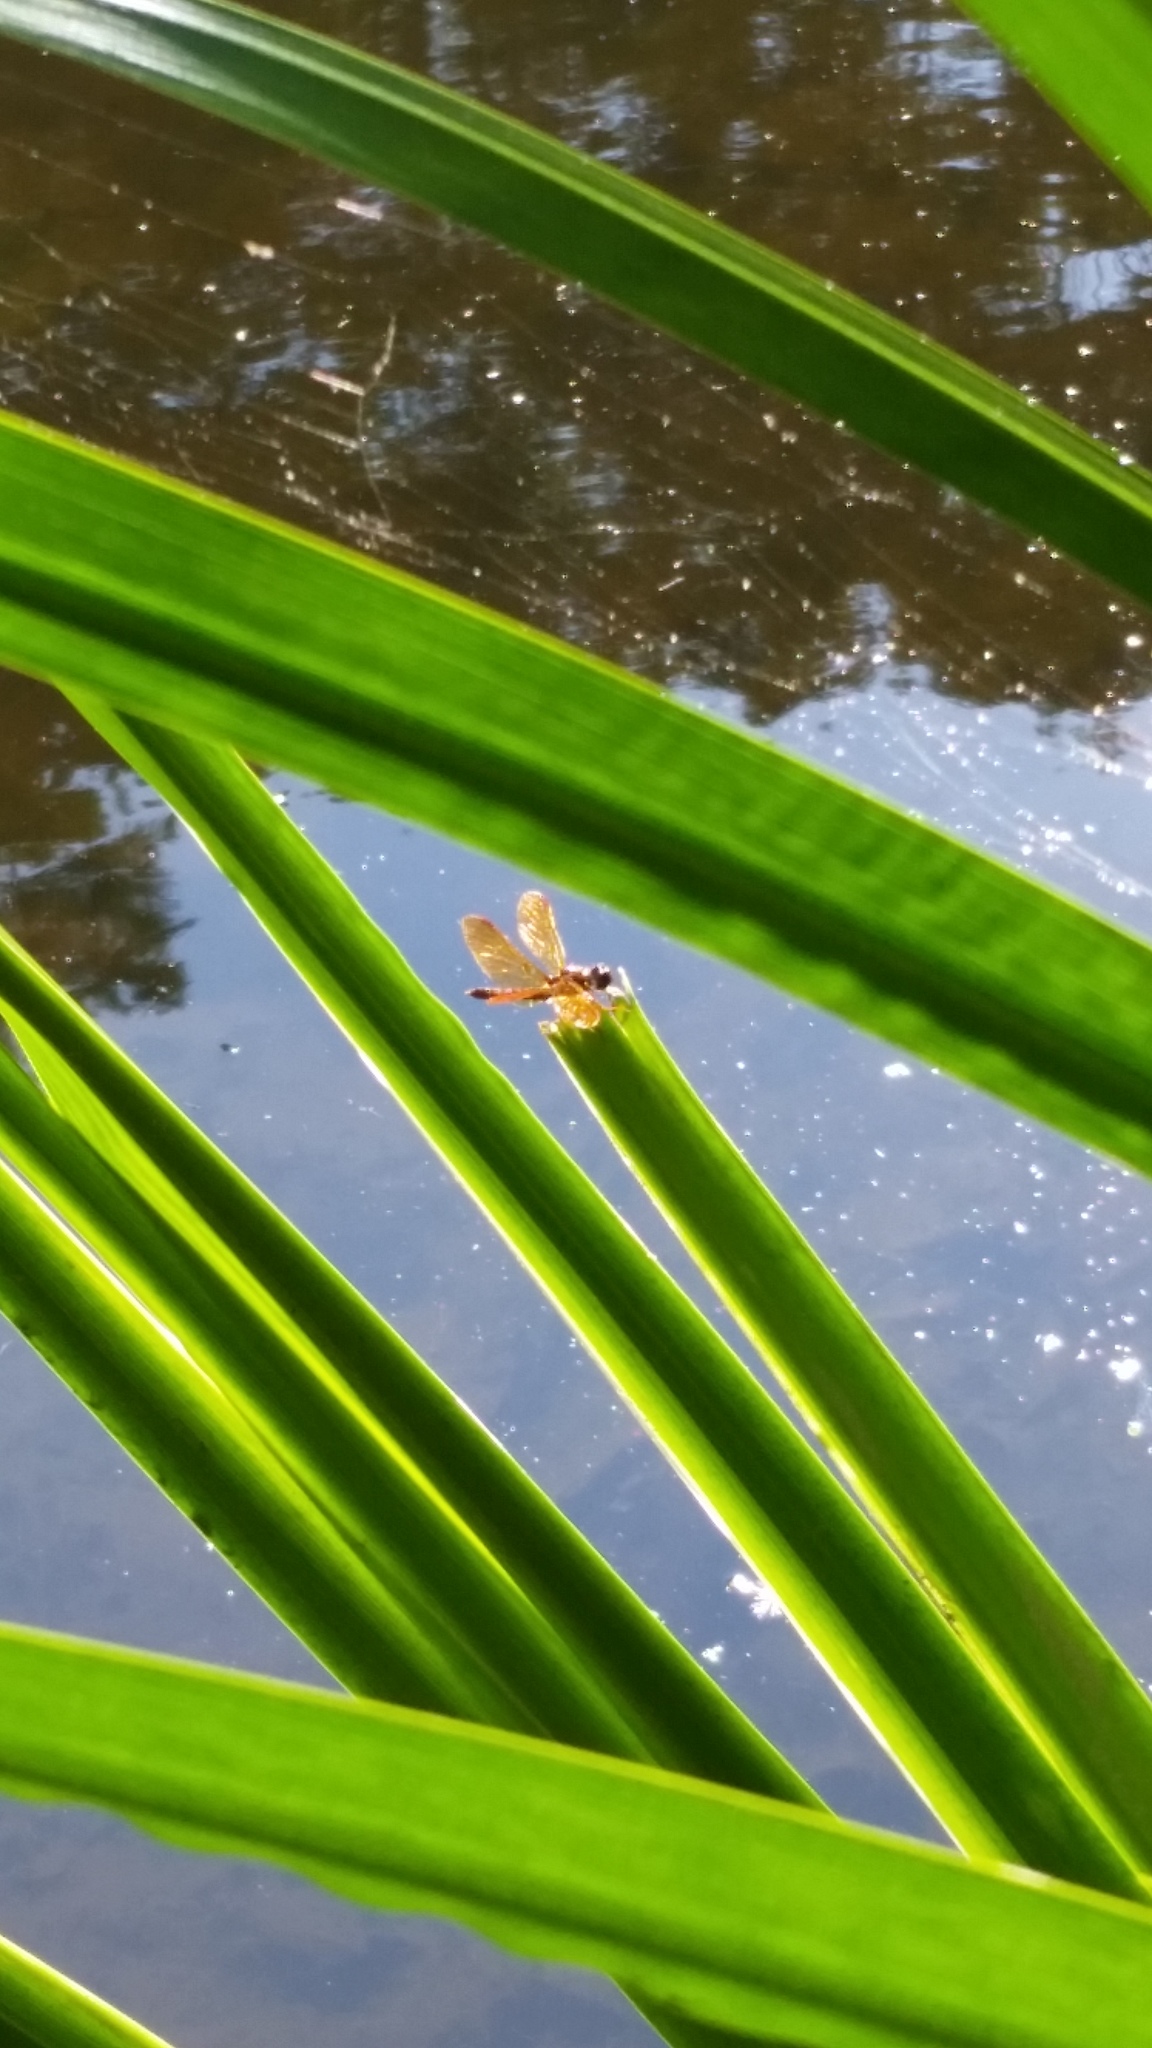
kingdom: Animalia
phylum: Arthropoda
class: Insecta
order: Odonata
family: Libellulidae
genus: Perithemis
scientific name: Perithemis tenera
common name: Eastern amberwing
